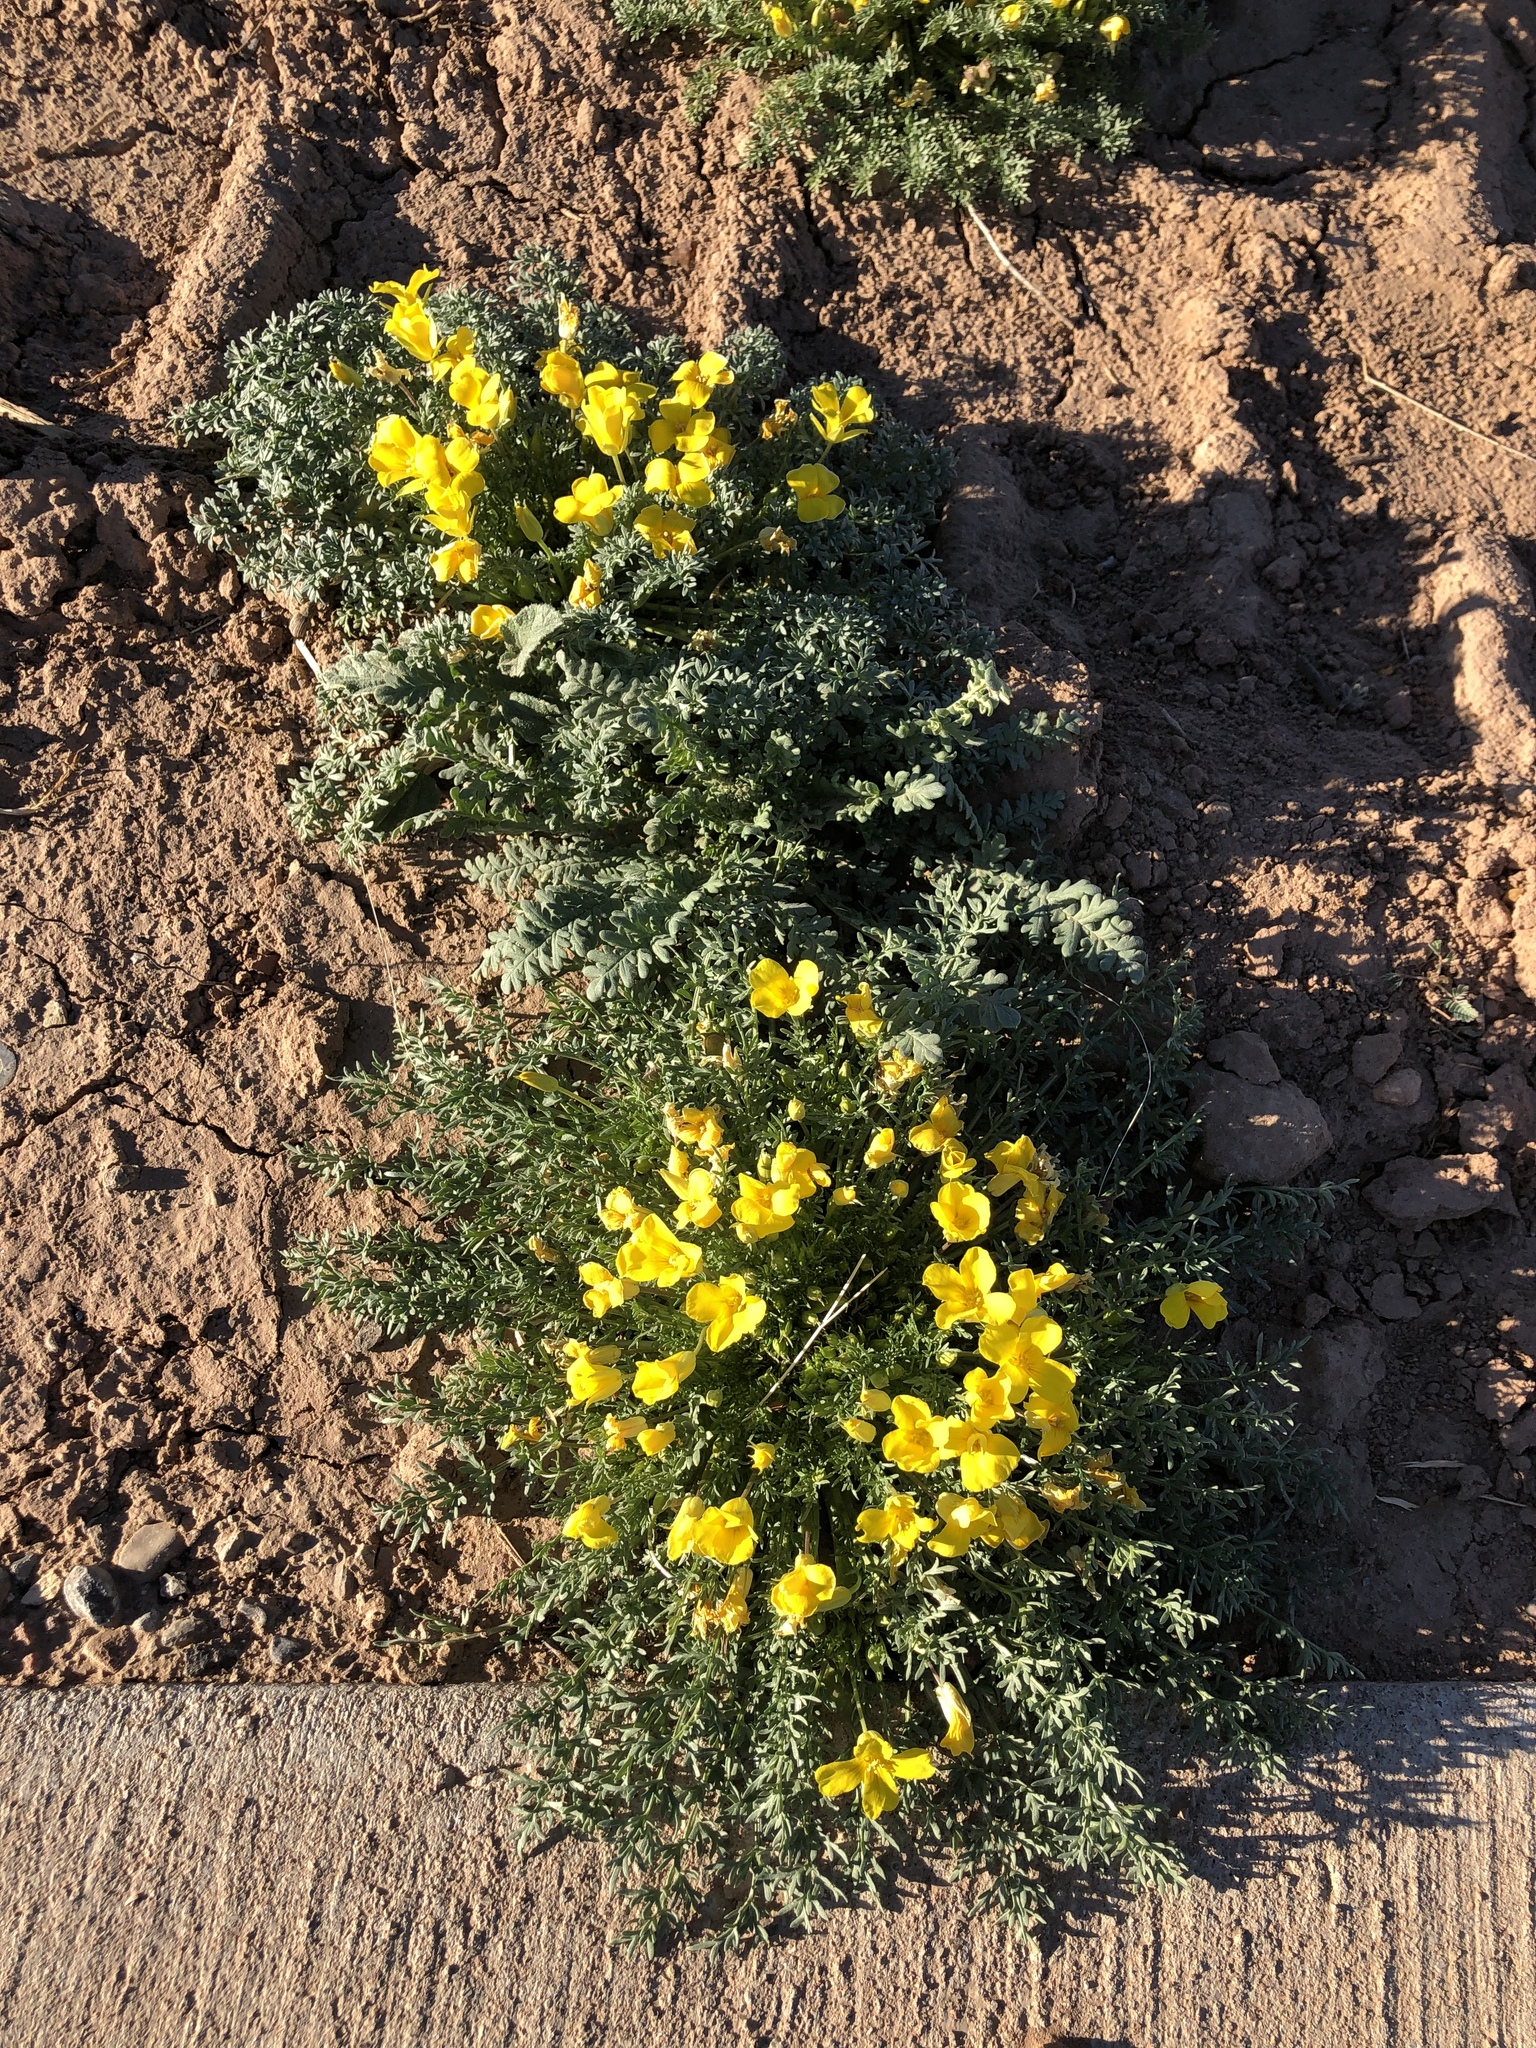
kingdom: Plantae
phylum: Tracheophyta
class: Magnoliopsida
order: Brassicales
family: Brassicaceae
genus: Selenia
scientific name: Selenia dissecta
